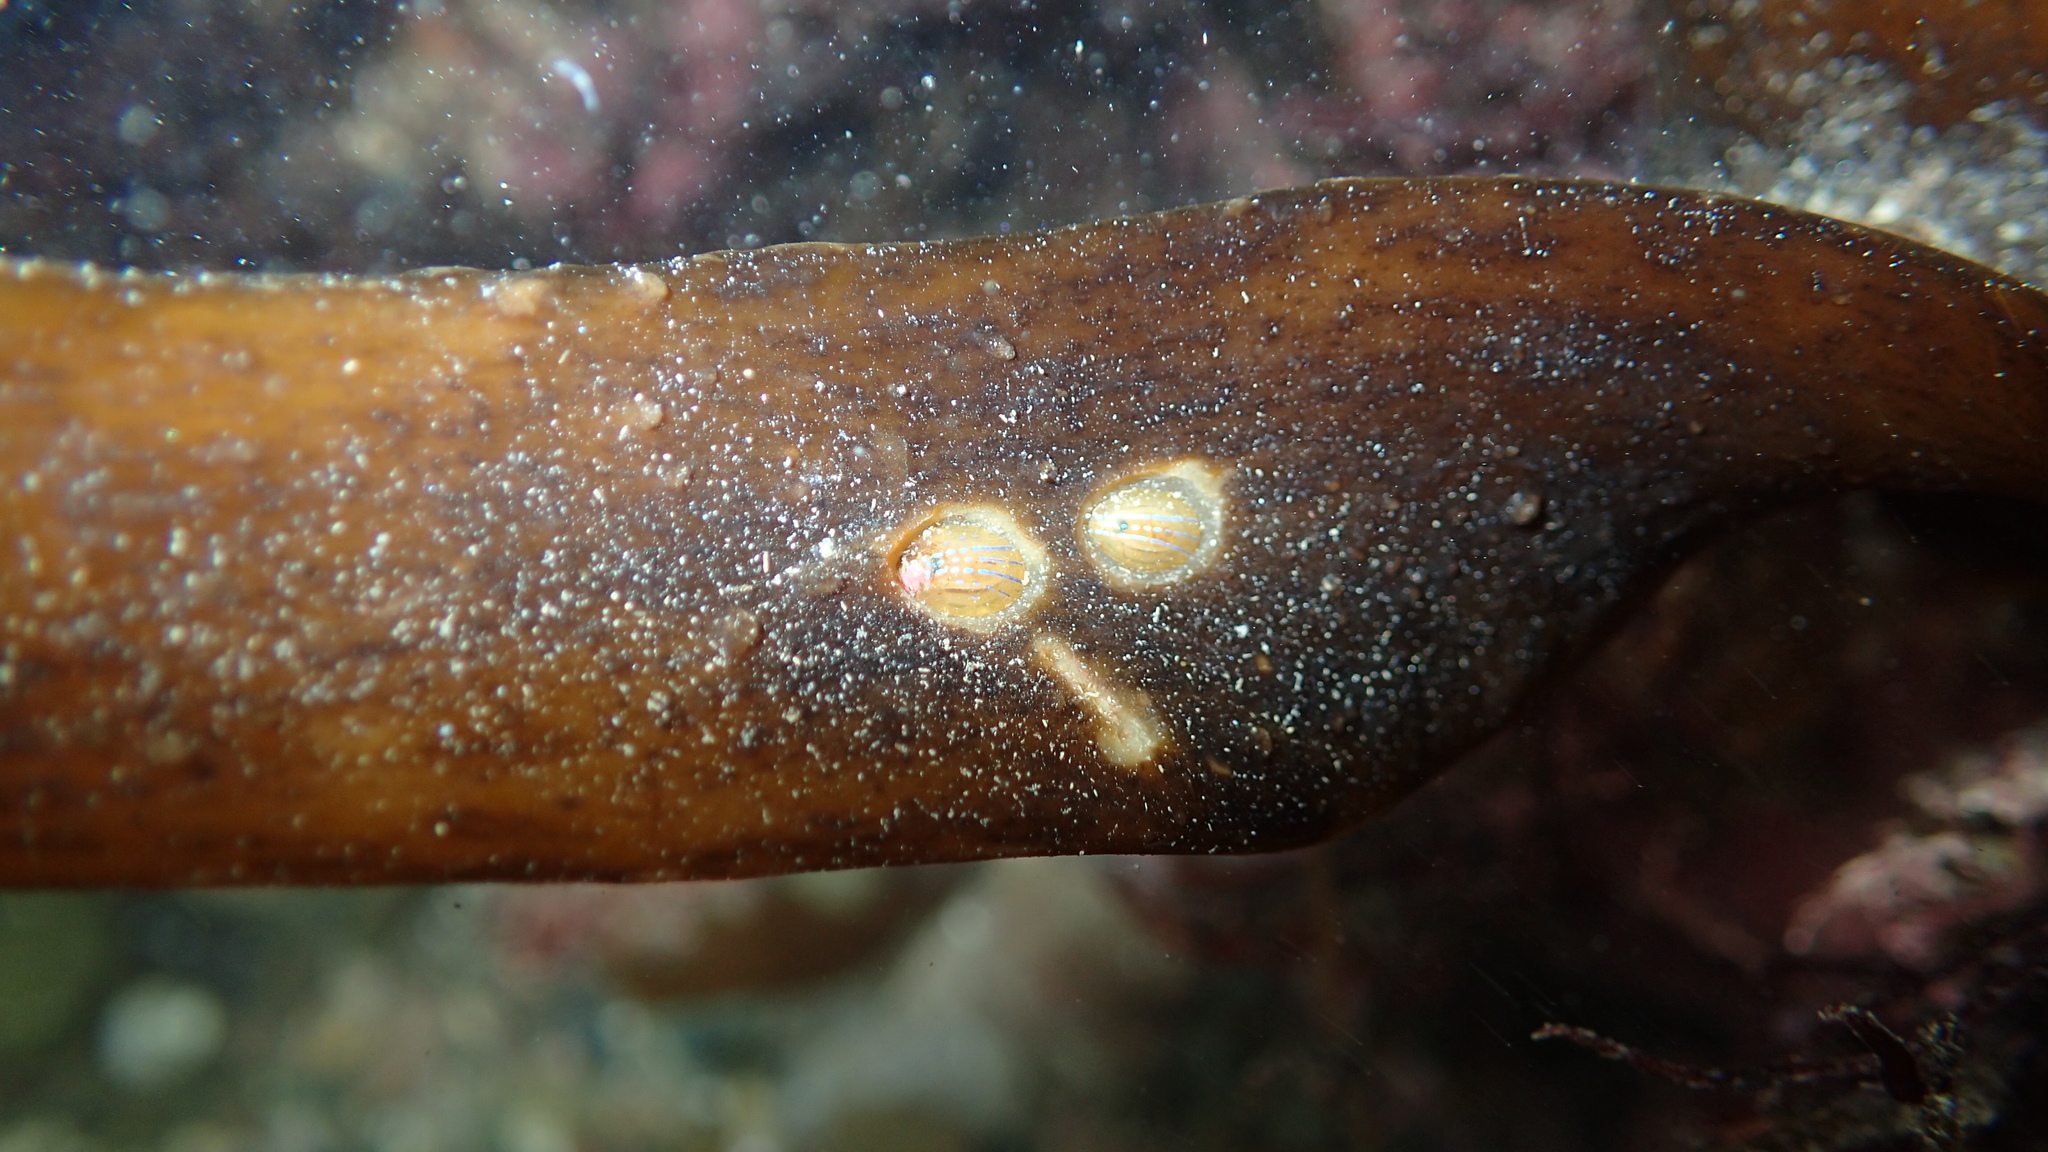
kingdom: Animalia
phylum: Mollusca
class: Gastropoda
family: Patellidae
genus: Patella
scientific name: Patella pellucida
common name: Blue-rayed limpet
